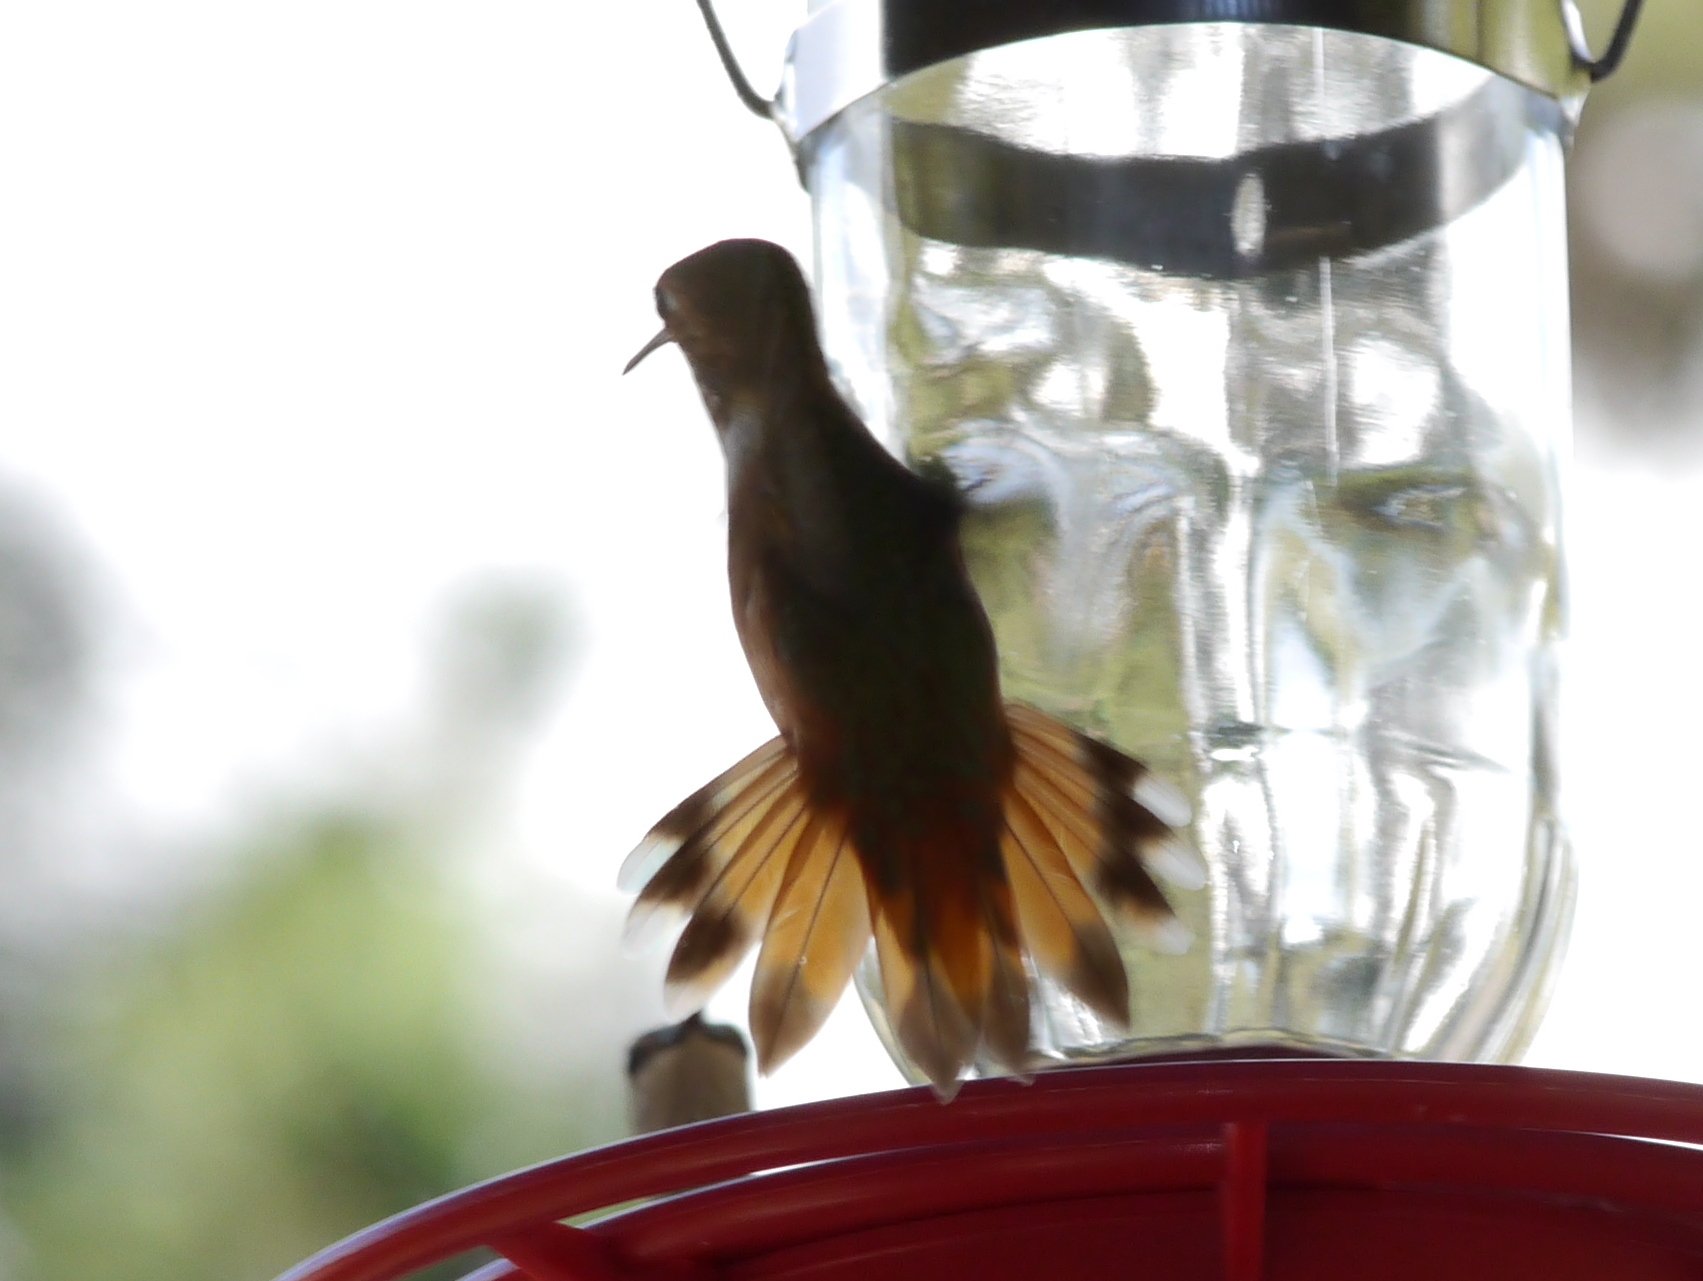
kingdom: Animalia
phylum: Chordata
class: Aves
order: Apodiformes
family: Trochilidae
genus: Selasphorus
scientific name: Selasphorus rufus
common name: Rufous hummingbird
